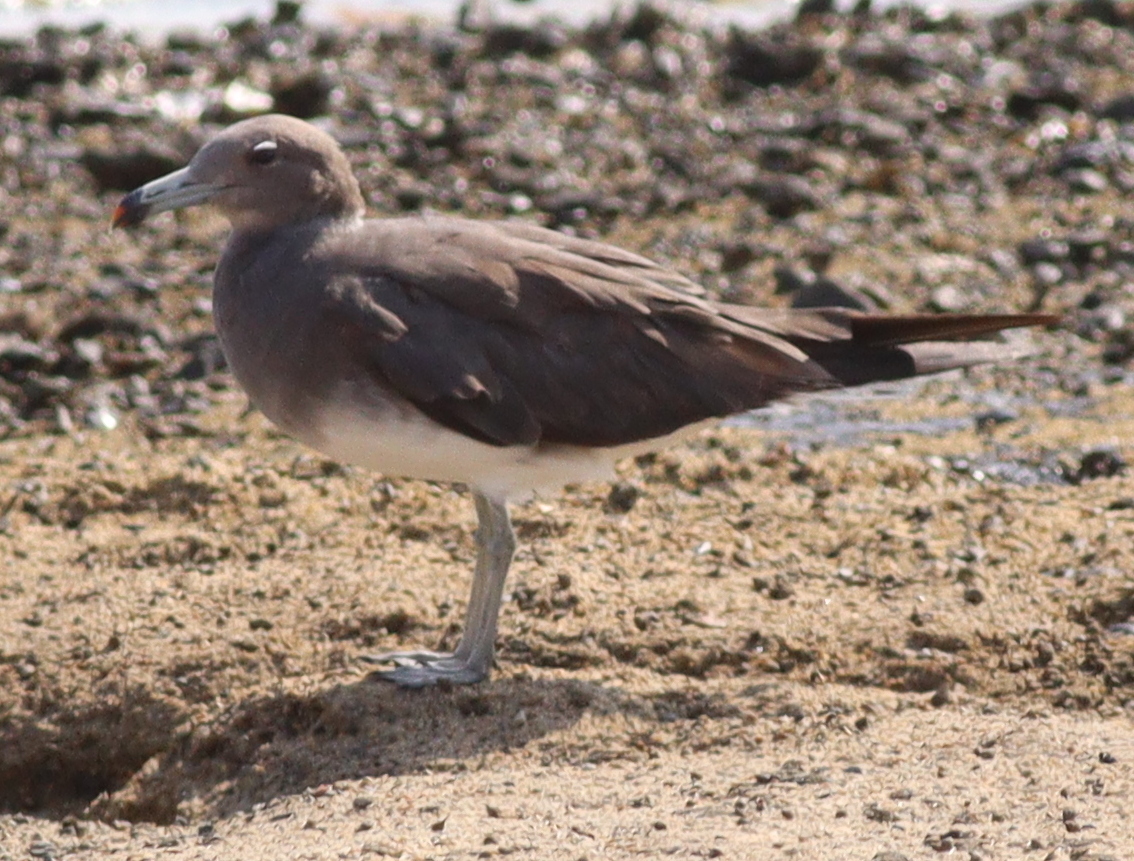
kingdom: Animalia
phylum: Chordata
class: Aves
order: Charadriiformes
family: Laridae
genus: Ichthyaetus
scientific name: Ichthyaetus hemprichii
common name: Sooty gull
